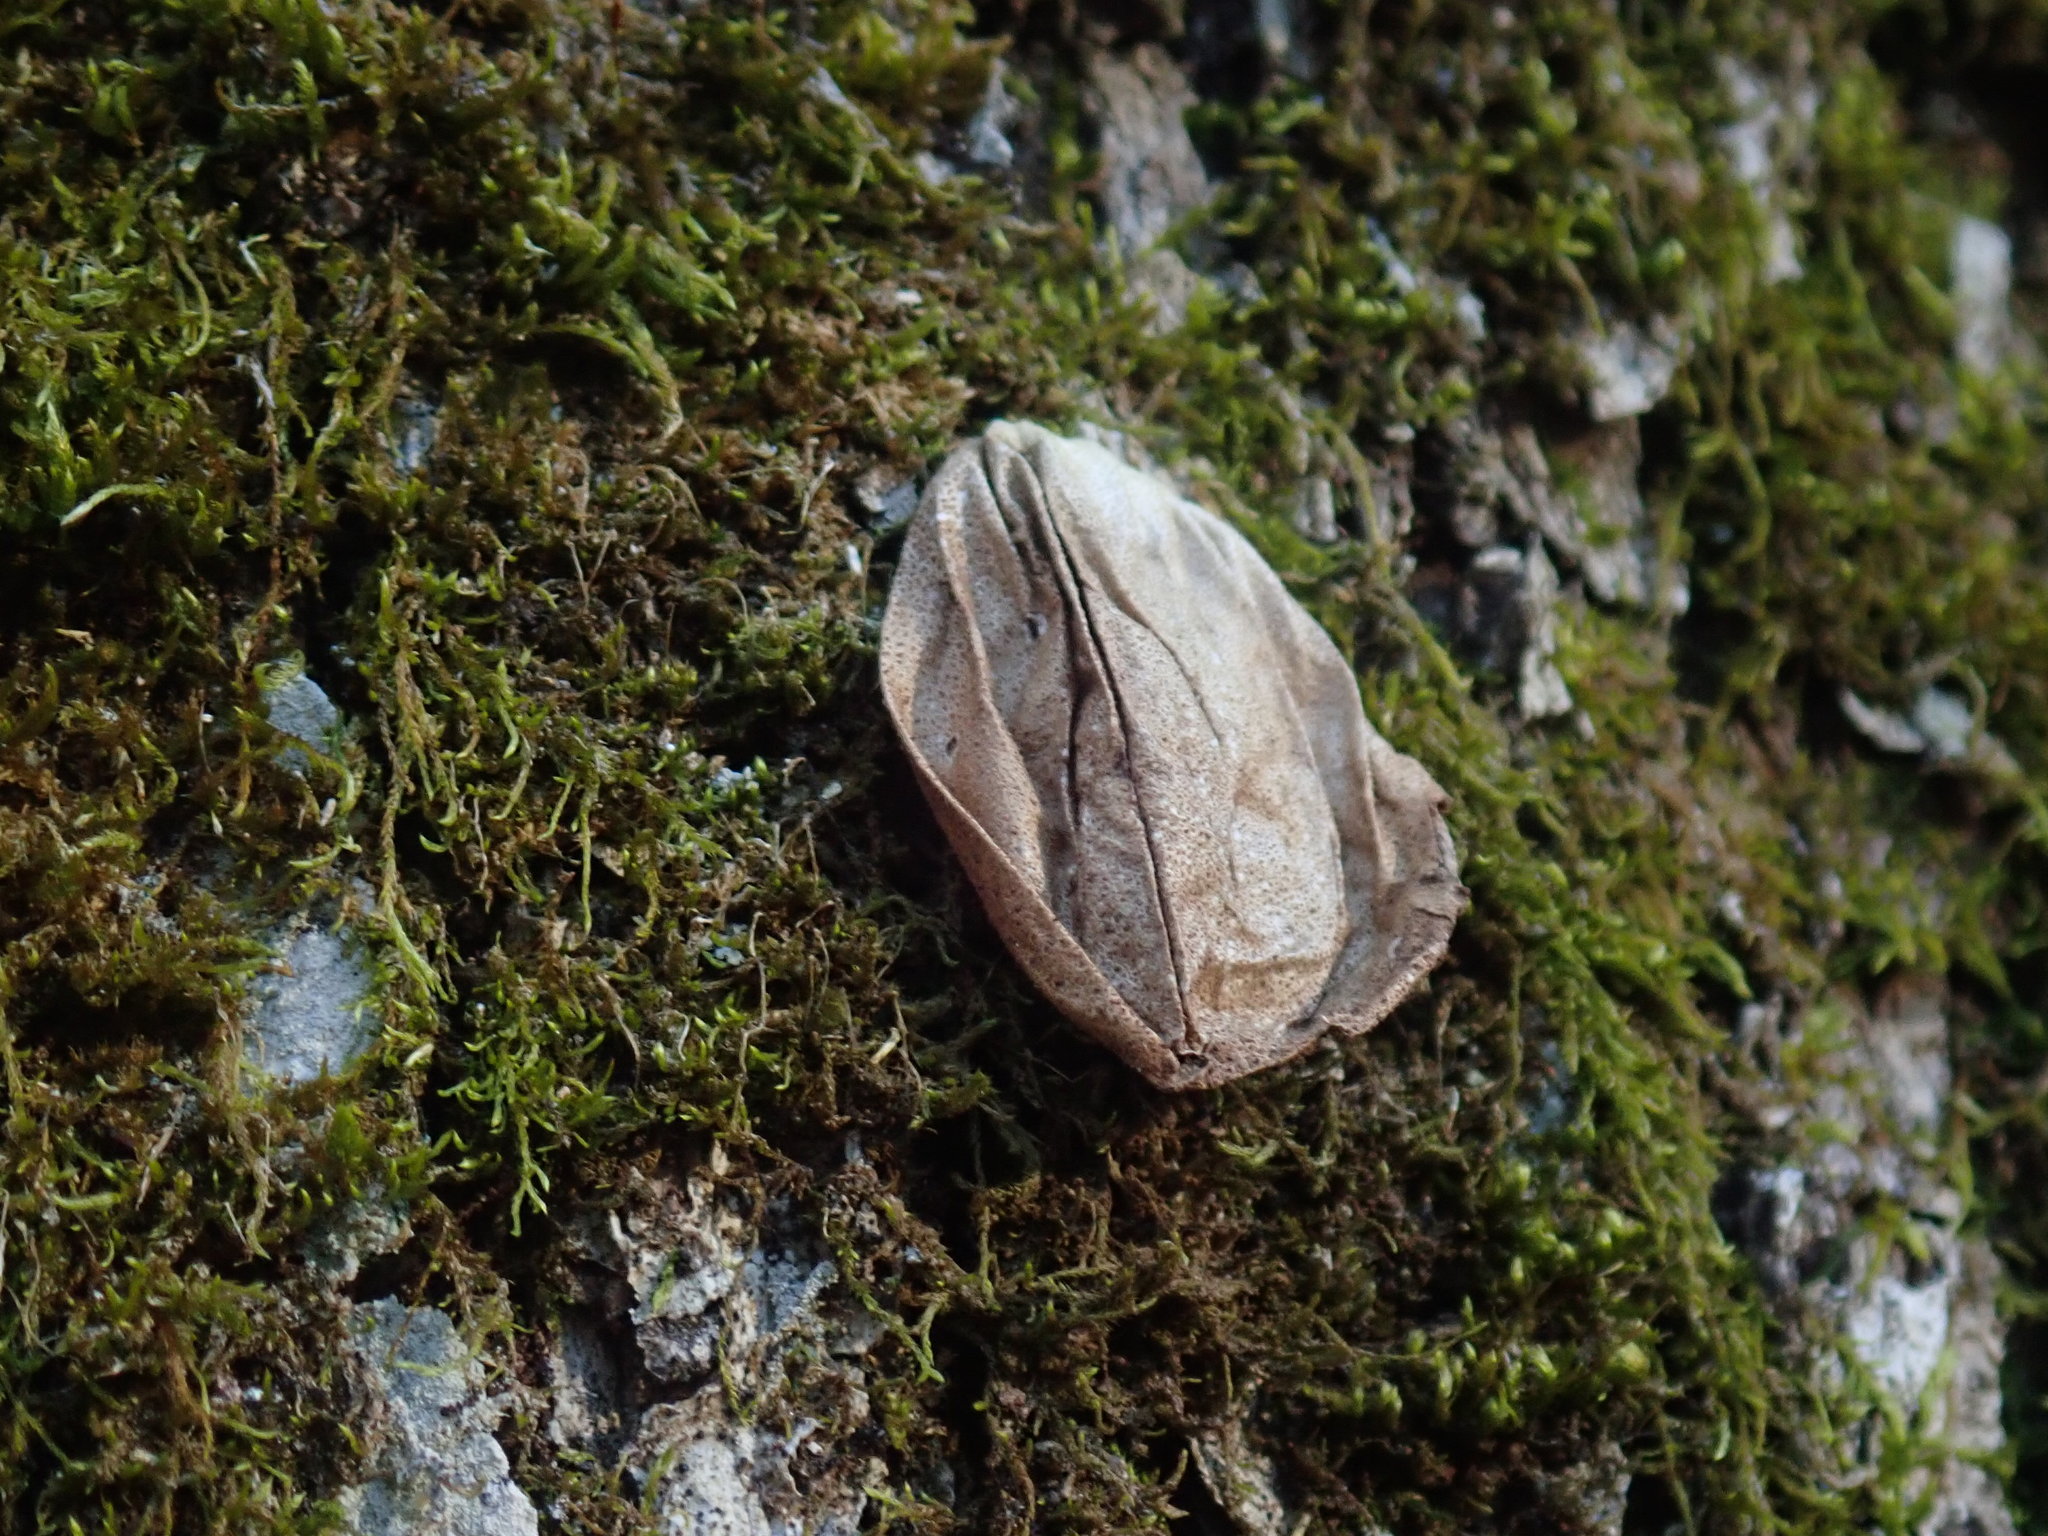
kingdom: Fungi
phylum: Basidiomycota
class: Agaricomycetes
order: Agaricales
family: Lycoperdaceae
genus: Apioperdon
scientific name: Apioperdon pyriforme
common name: Pear-shaped puffball
